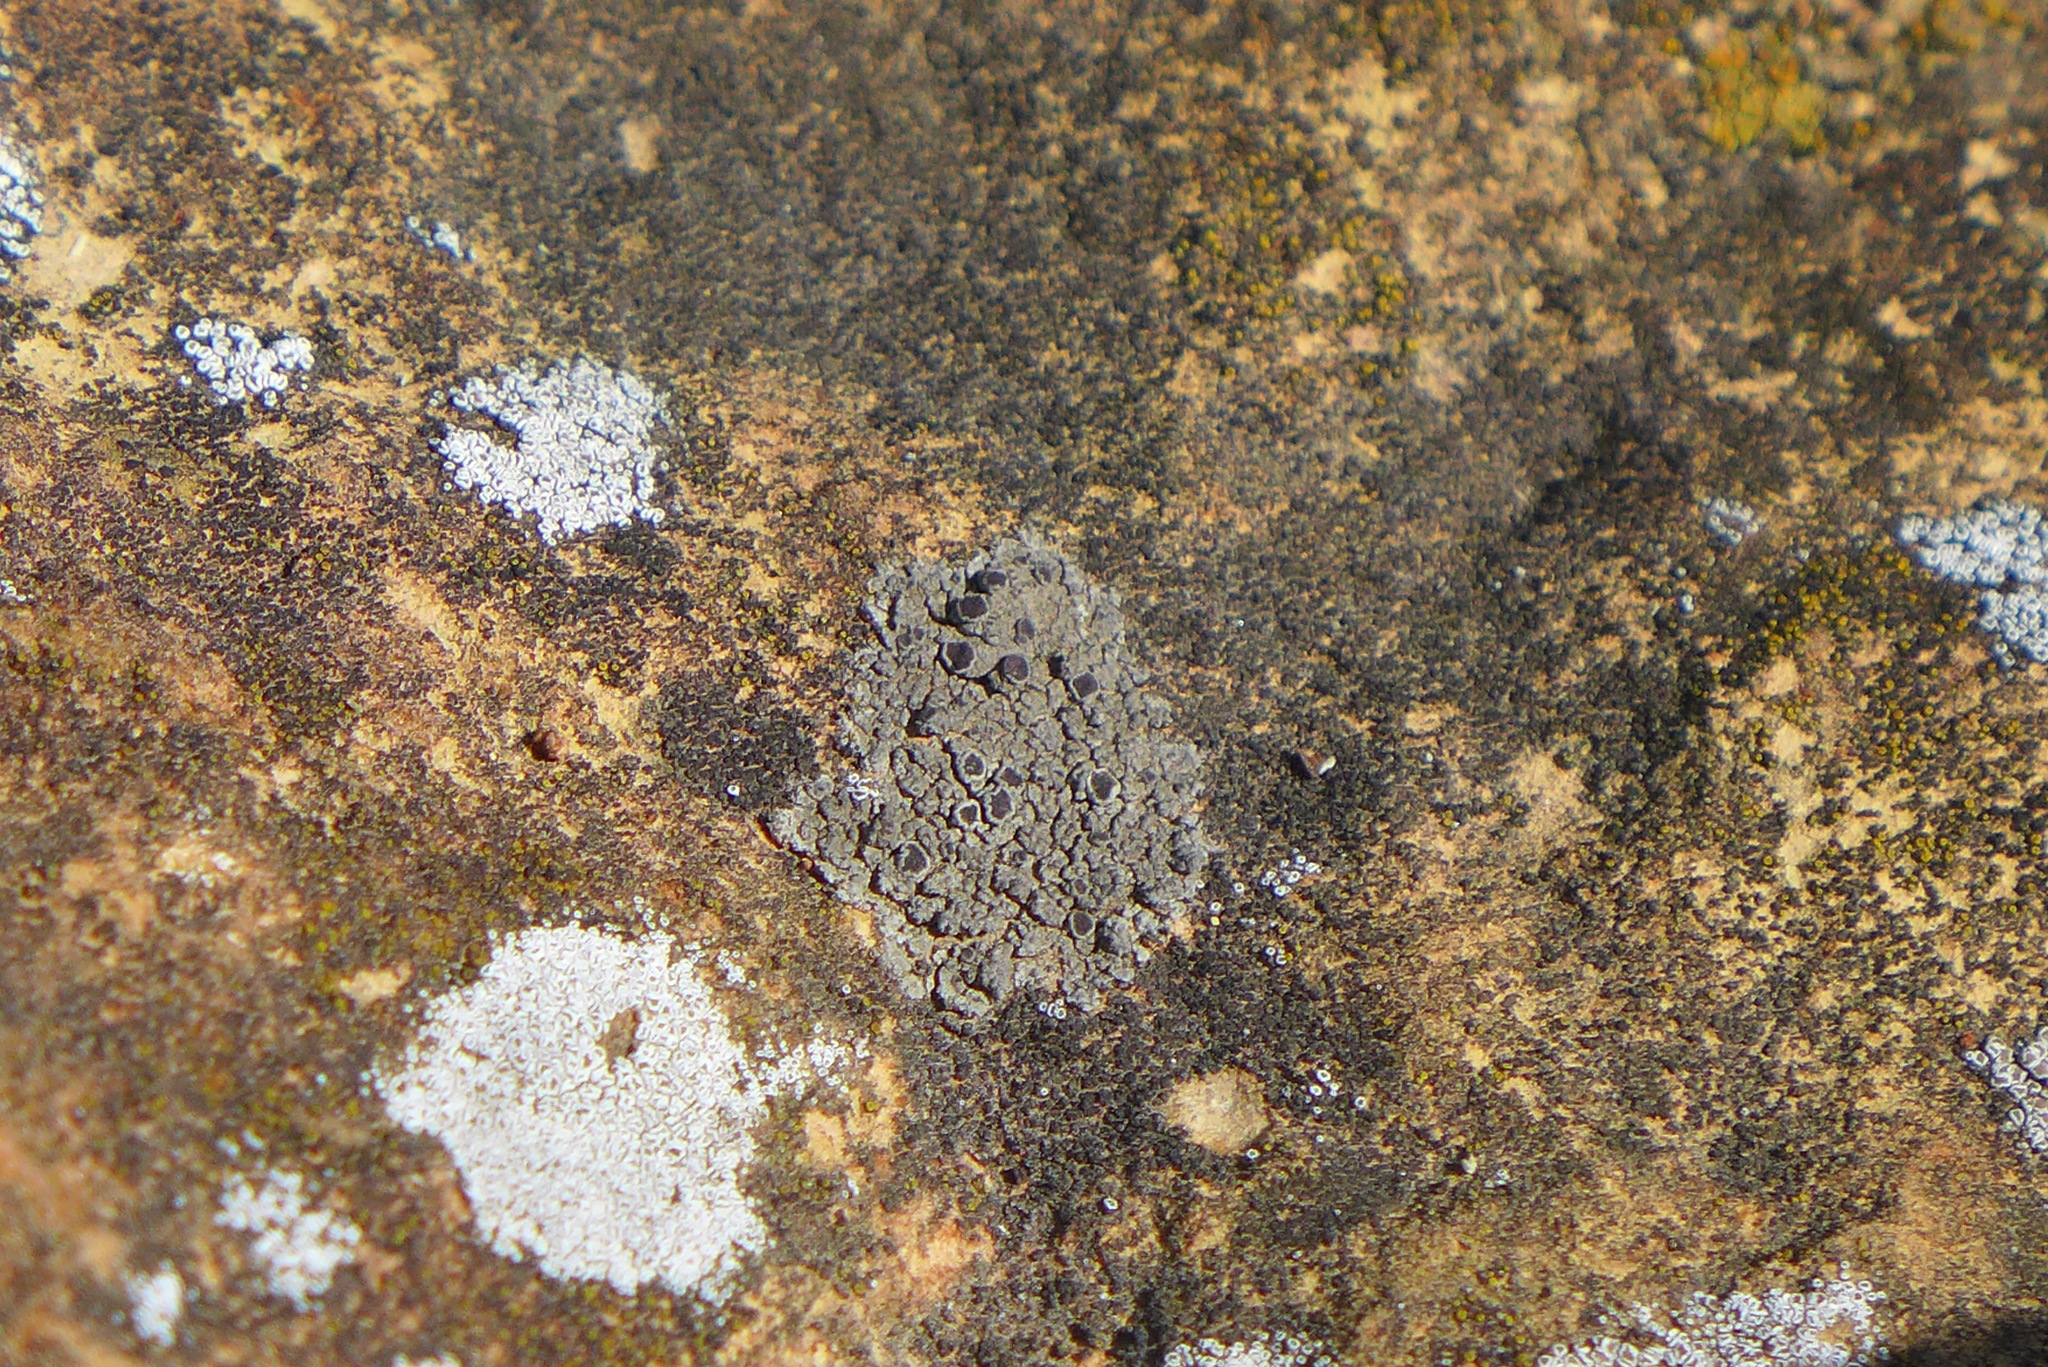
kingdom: Fungi
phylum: Ascomycota
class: Lecanoromycetes
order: Lecanorales
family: Lecanoraceae
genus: Polyozosia
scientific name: Polyozosia dispersa
